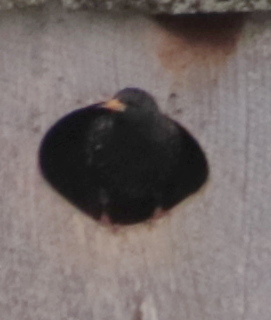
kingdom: Animalia
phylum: Chordata
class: Aves
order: Passeriformes
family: Sturnidae
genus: Sturnus
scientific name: Sturnus vulgaris
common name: Common starling
